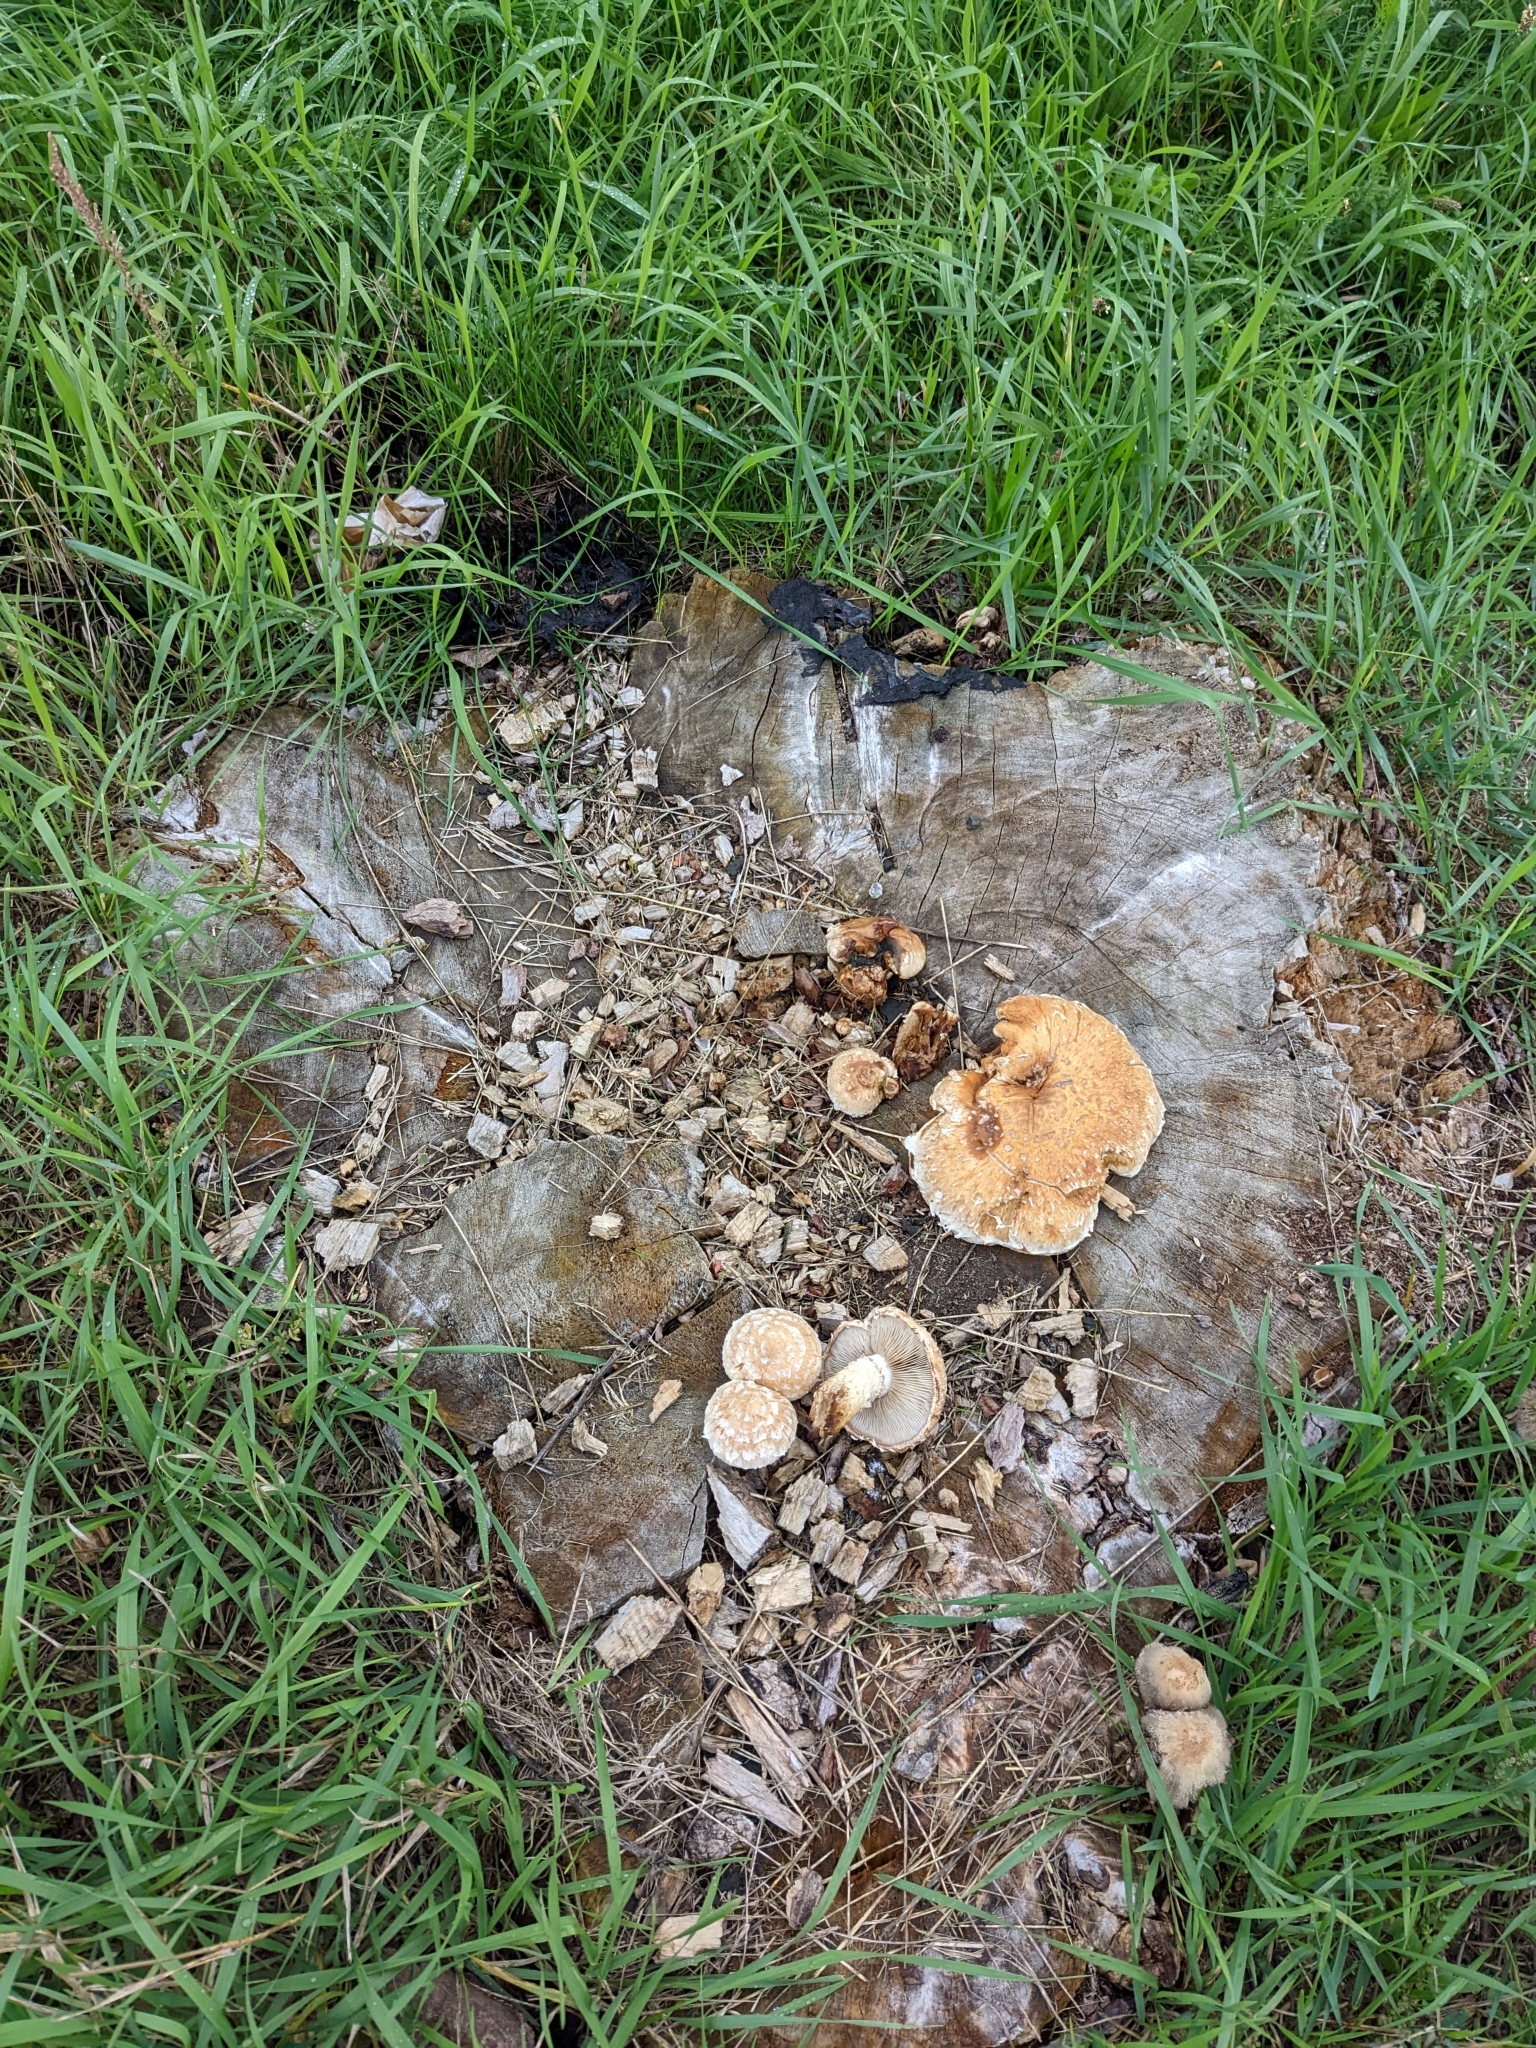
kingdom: Fungi
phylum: Basidiomycota
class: Agaricomycetes
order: Agaricales
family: Strophariaceae
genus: Pholiota
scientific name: Pholiota populnea
